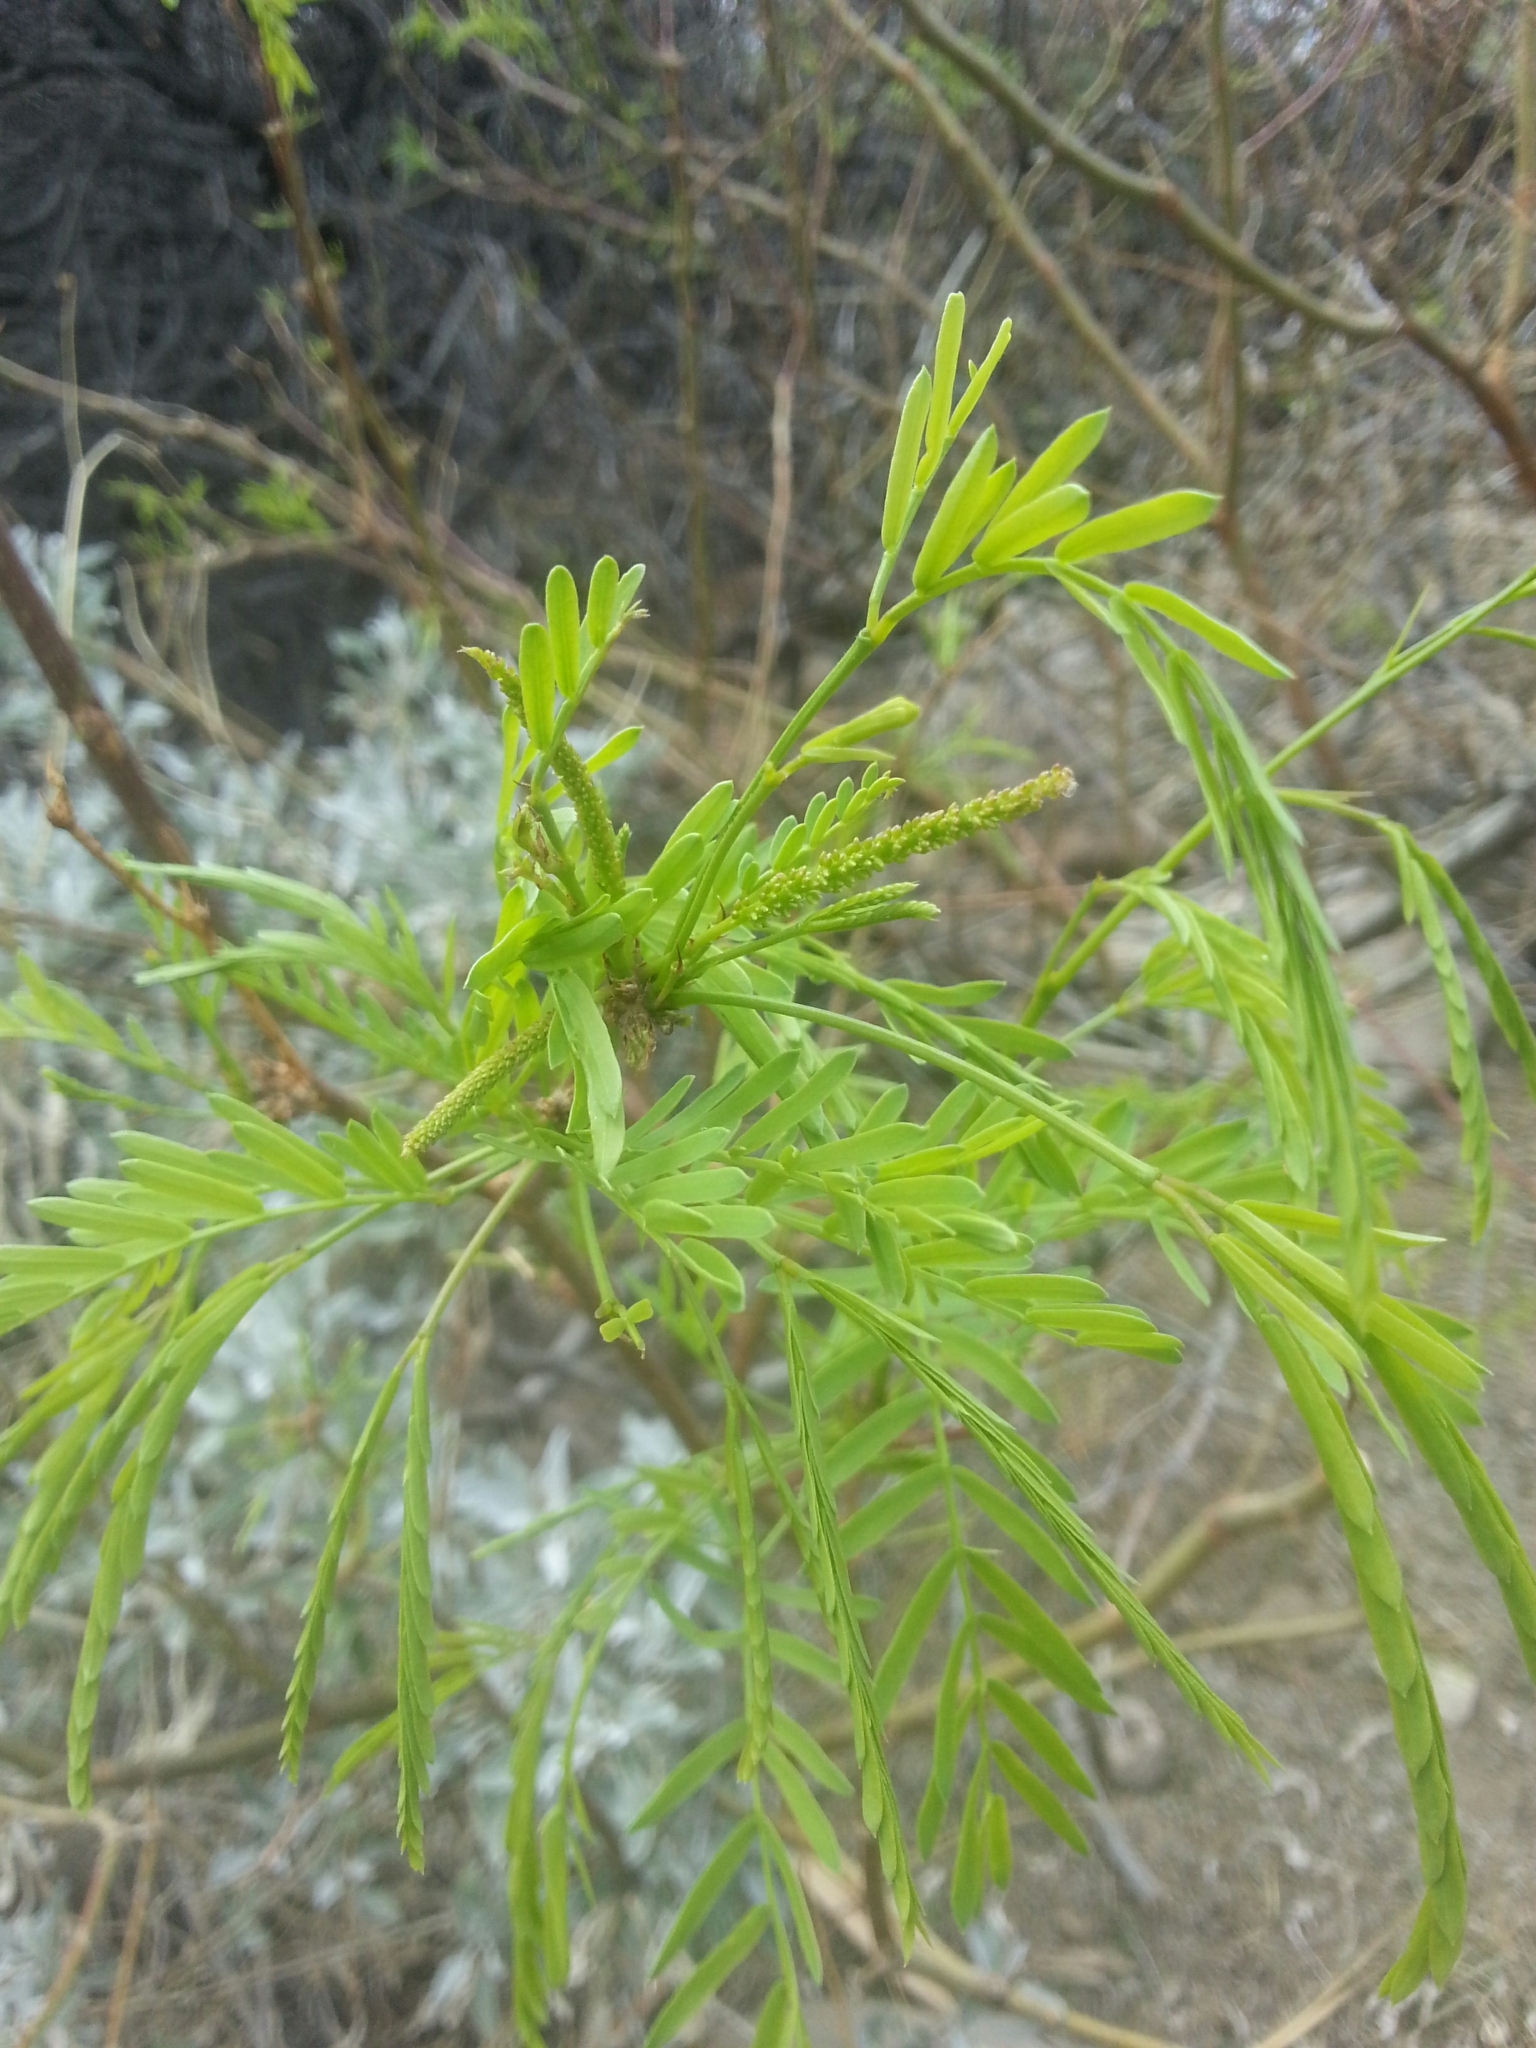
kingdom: Plantae
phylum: Tracheophyta
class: Magnoliopsida
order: Fabales
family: Fabaceae
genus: Prosopis
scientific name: Prosopis pubescens
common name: Screw-bean
